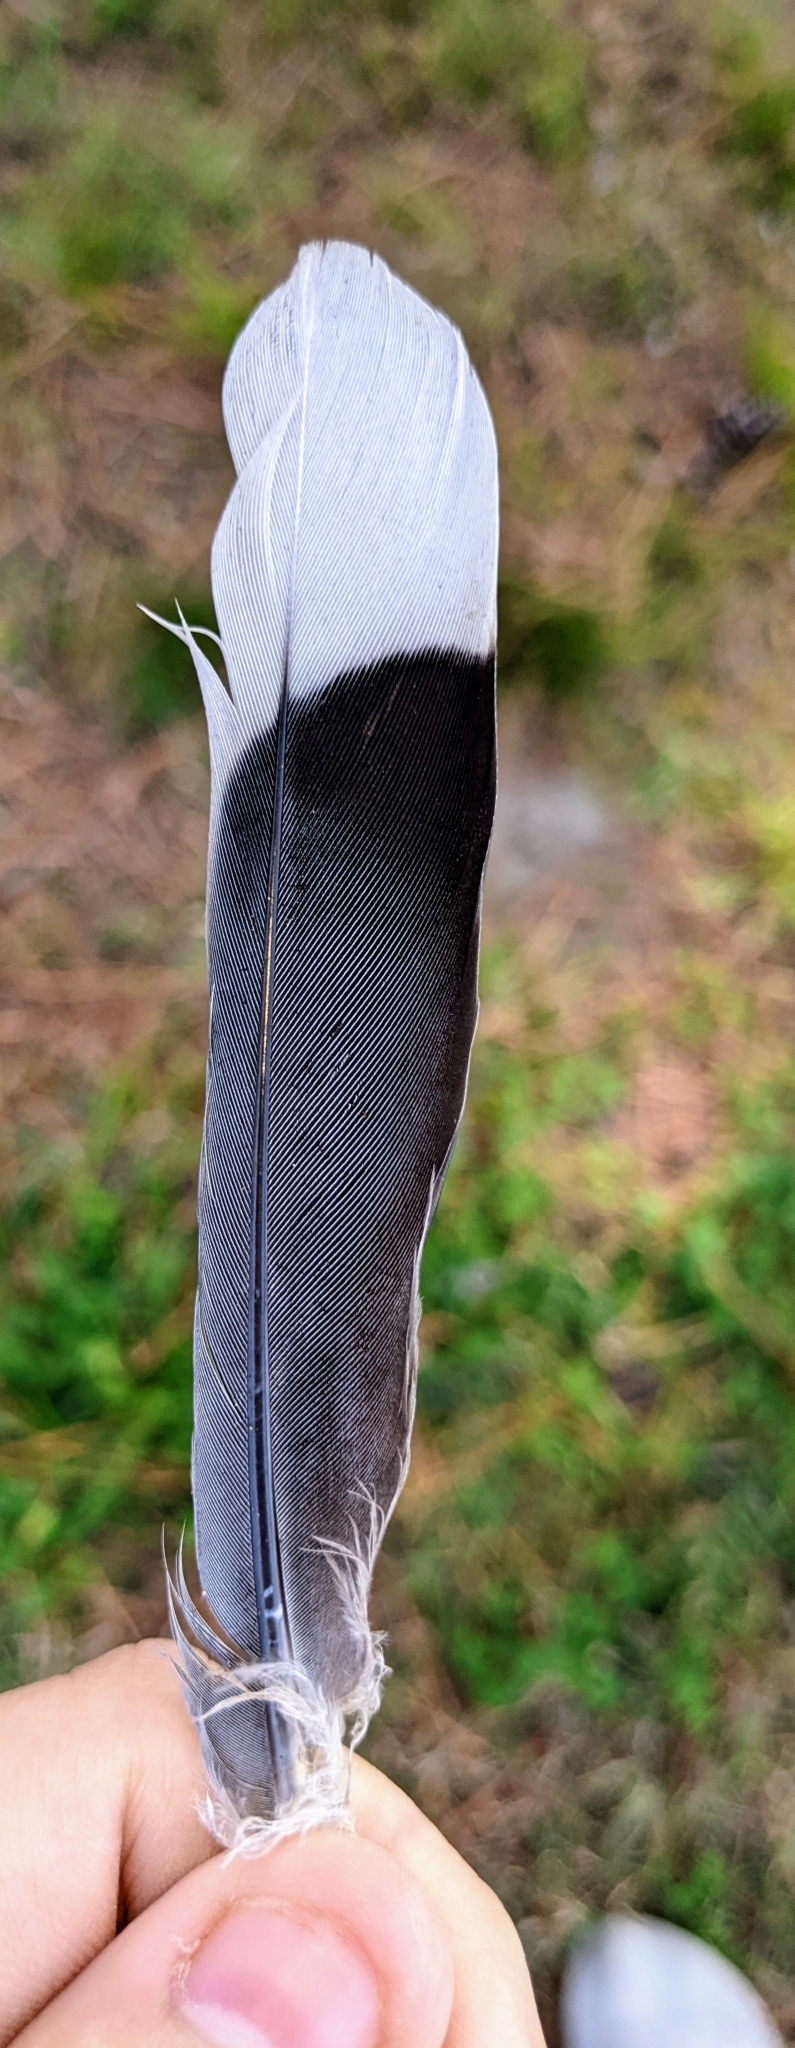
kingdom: Animalia
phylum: Chordata
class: Aves
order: Columbiformes
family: Columbidae
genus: Zenaida
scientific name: Zenaida asiatica
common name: White-winged dove
